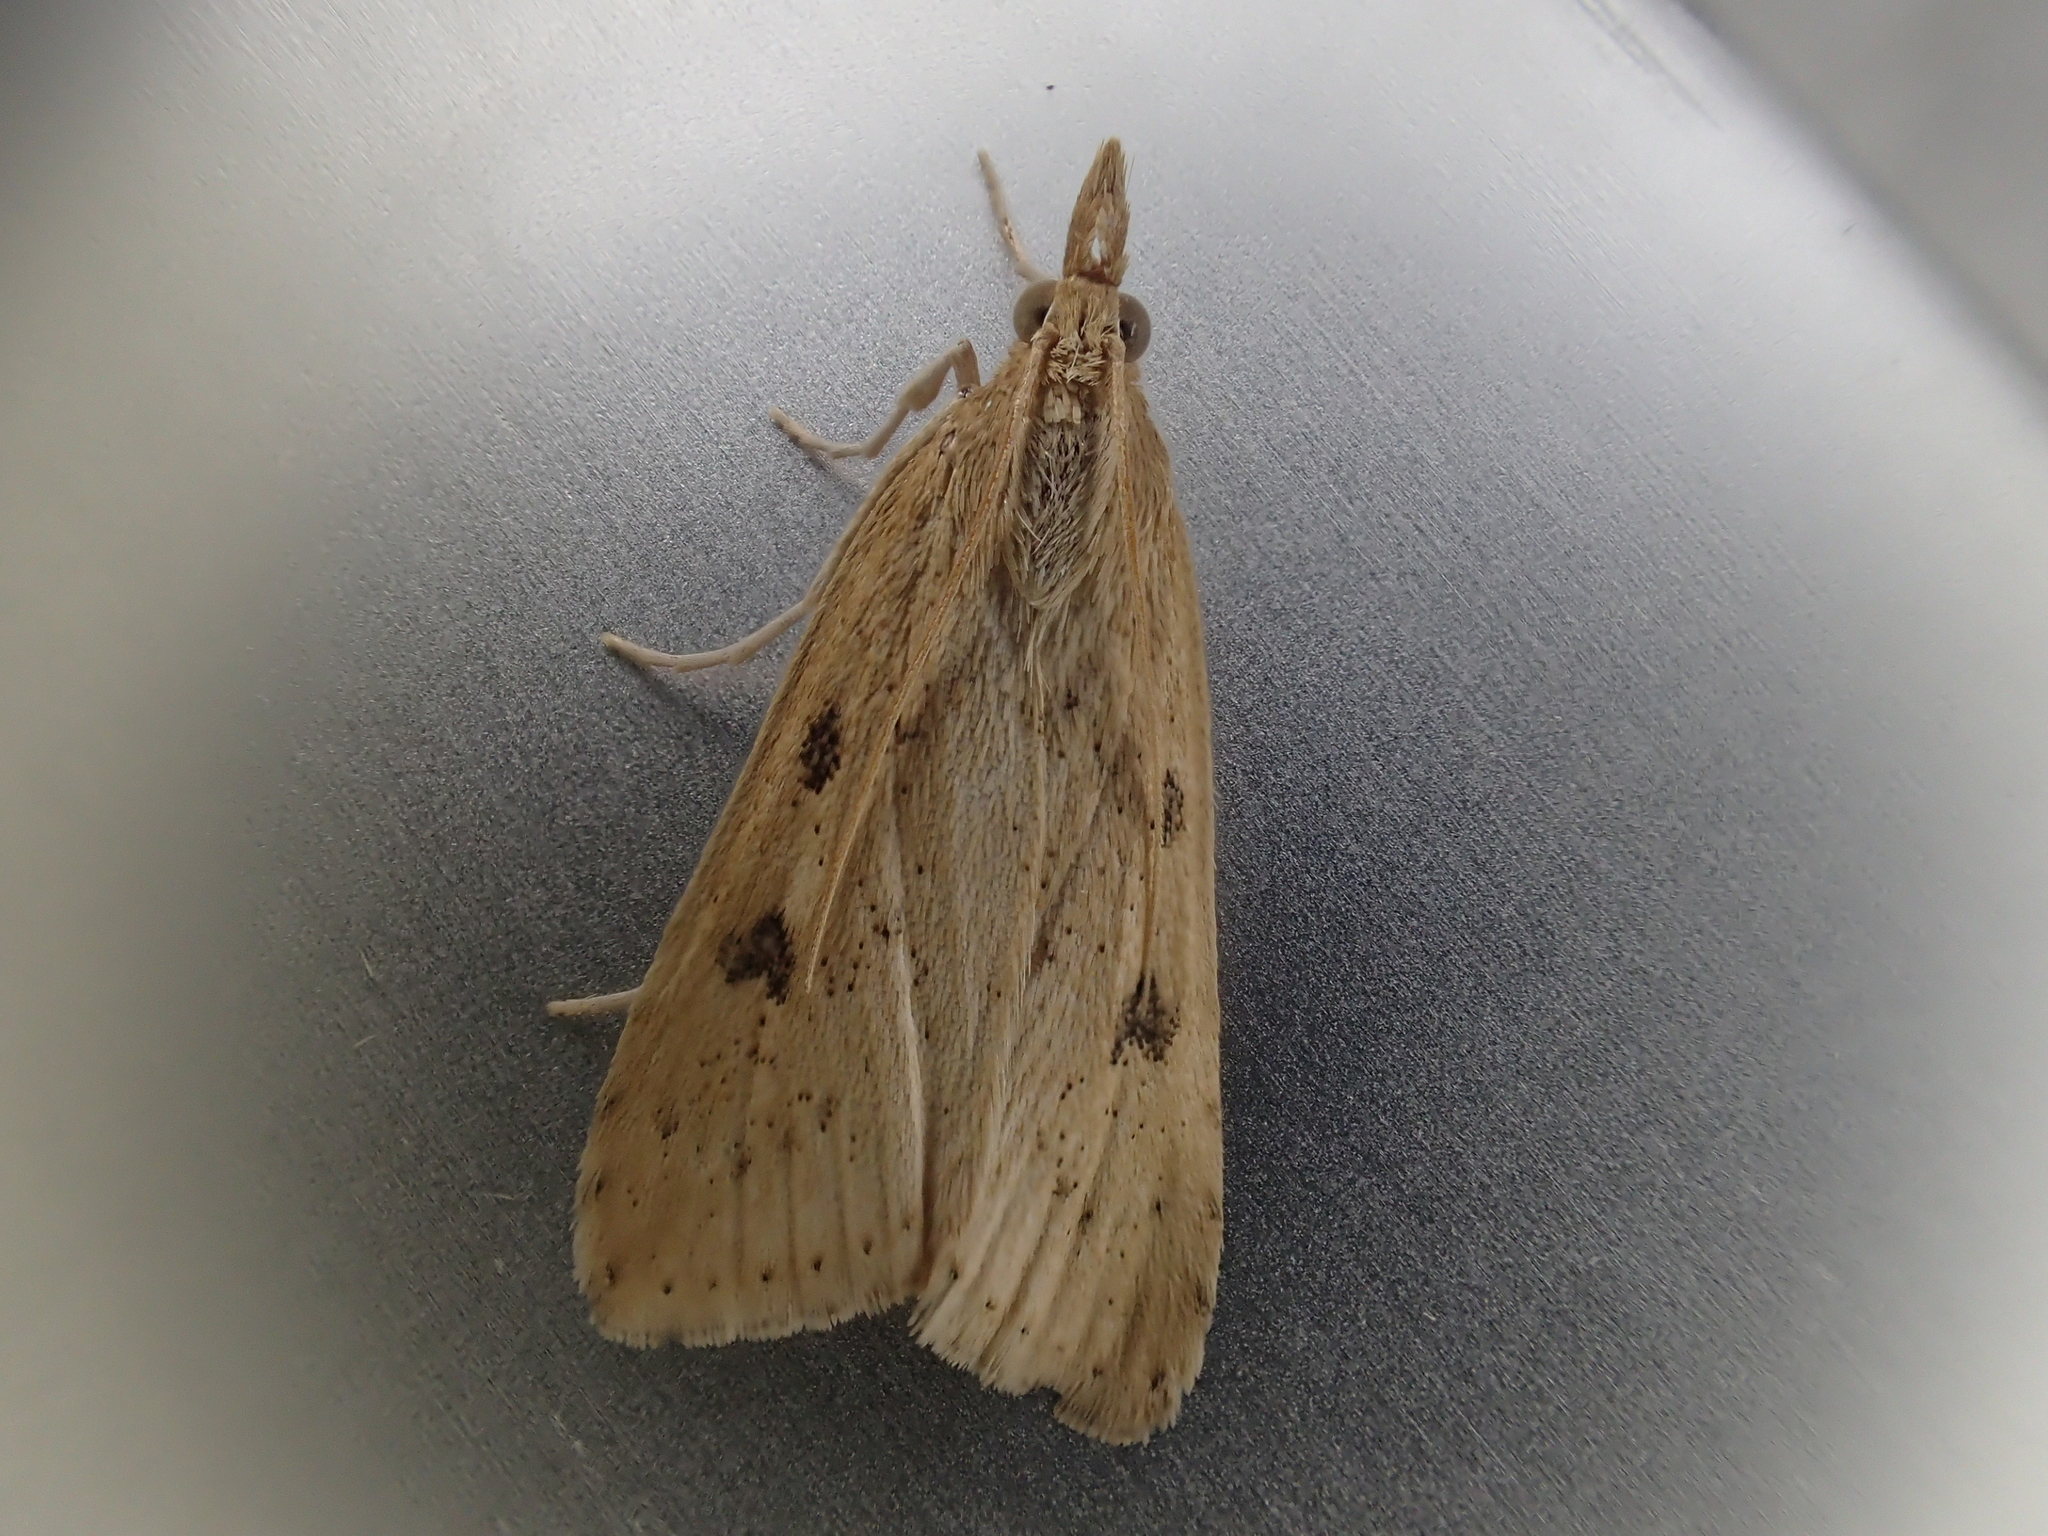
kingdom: Animalia
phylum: Arthropoda
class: Insecta
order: Lepidoptera
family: Crambidae
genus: Udea
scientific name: Udea numeralis
